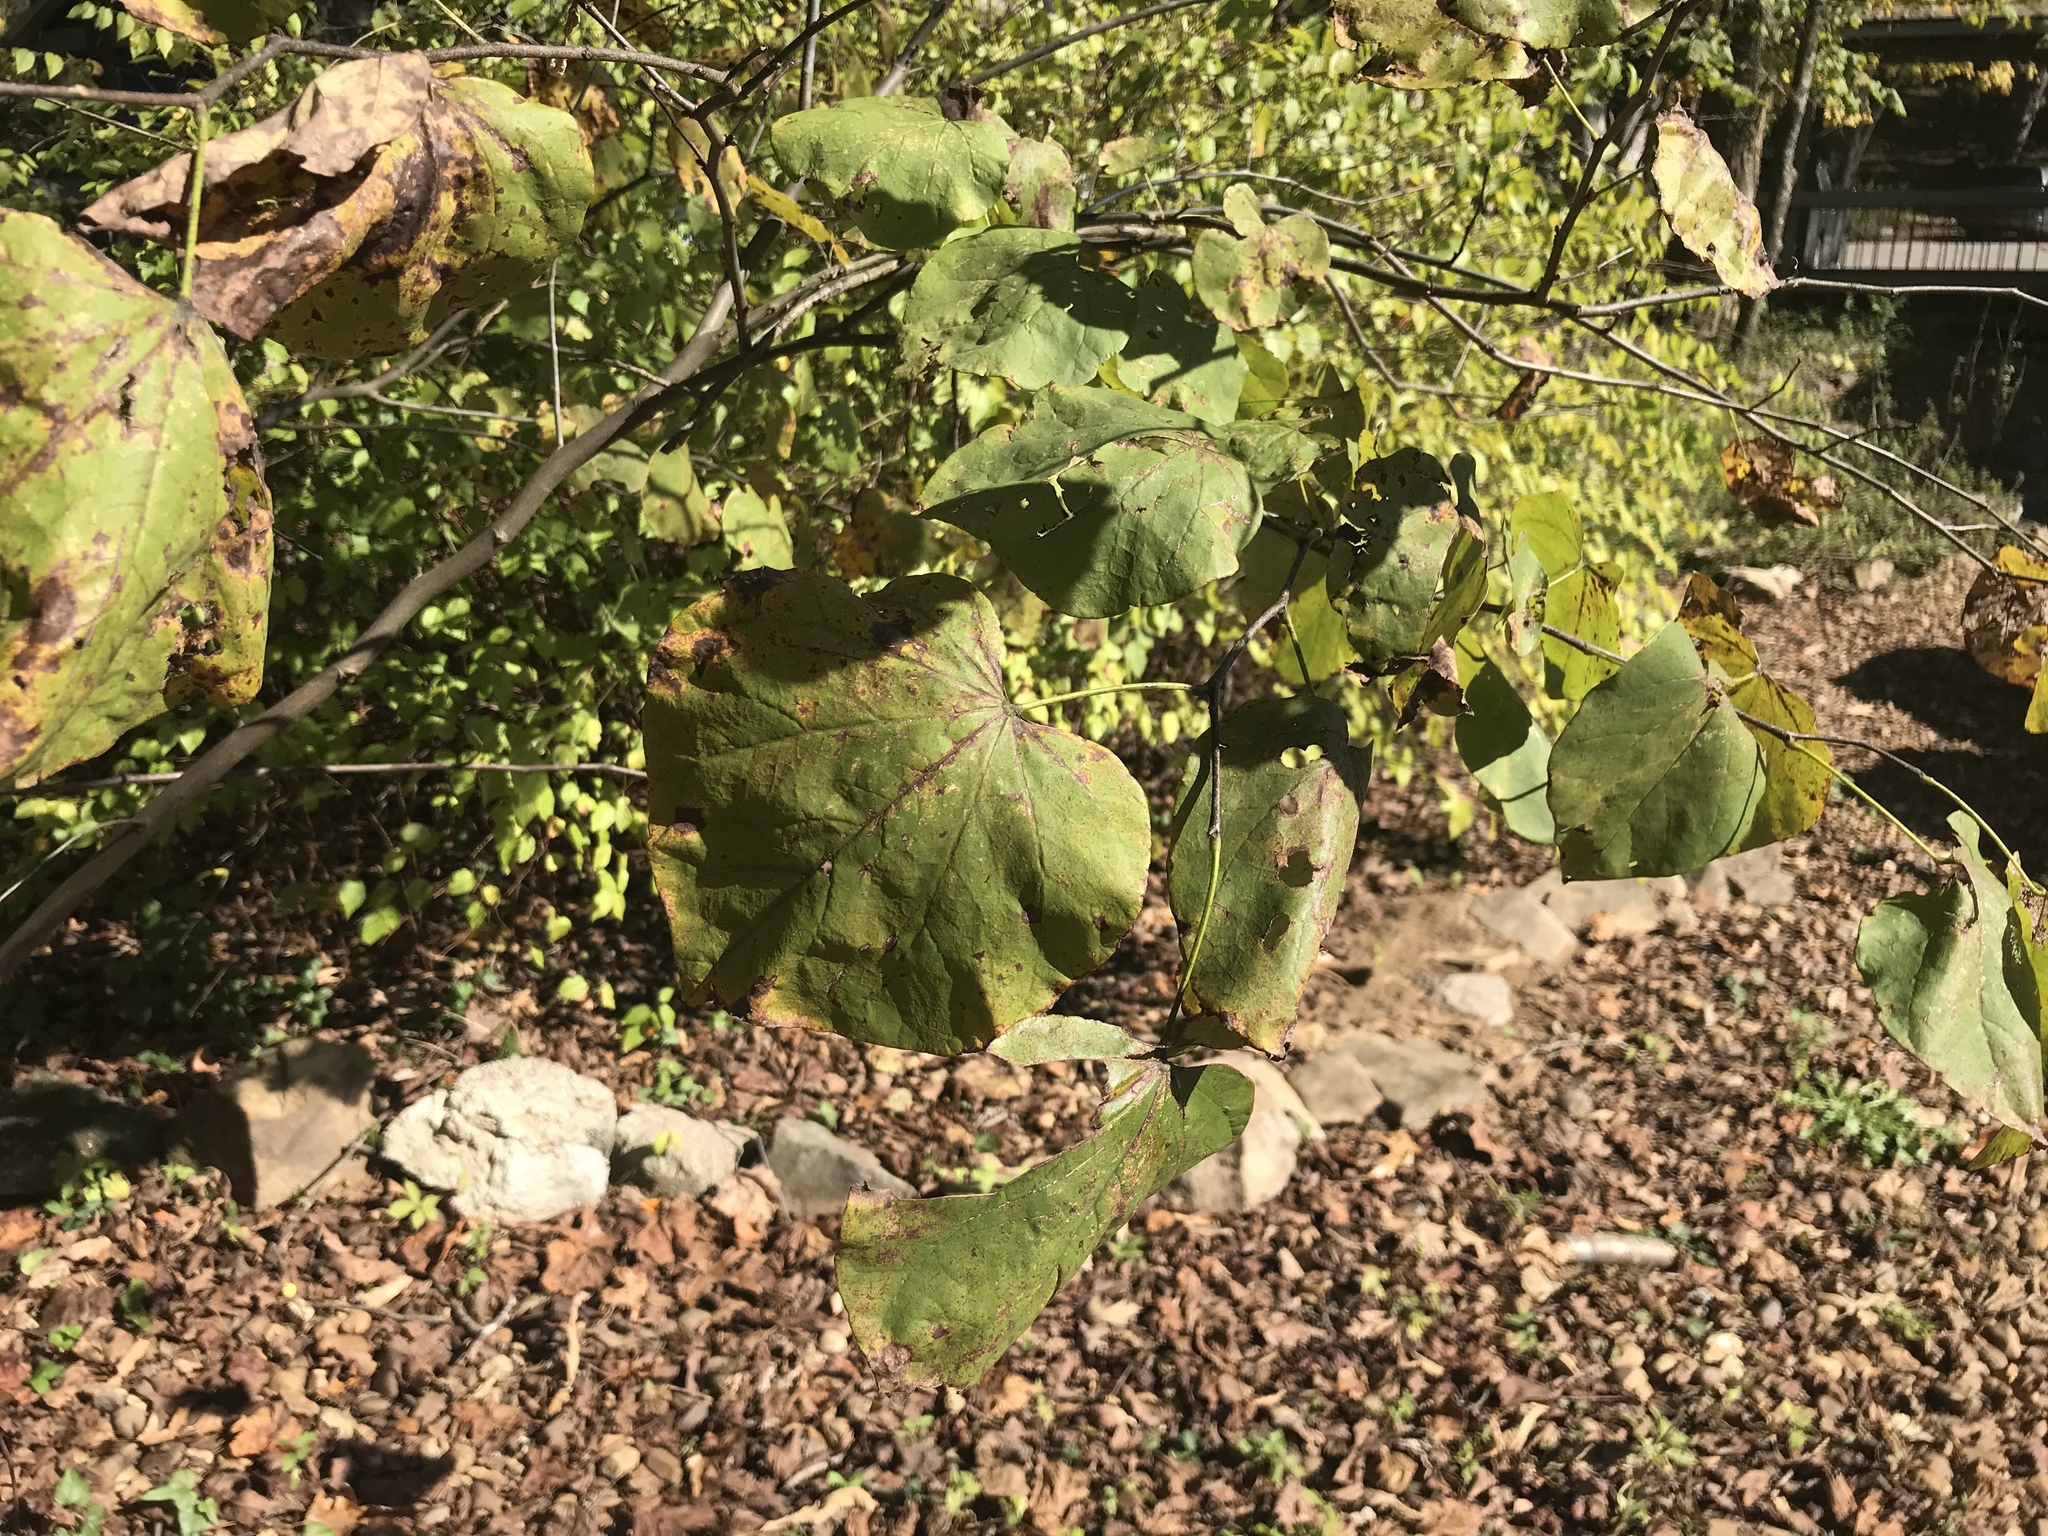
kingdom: Plantae
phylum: Tracheophyta
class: Magnoliopsida
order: Fabales
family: Fabaceae
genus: Cercis
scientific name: Cercis canadensis
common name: Eastern redbud
